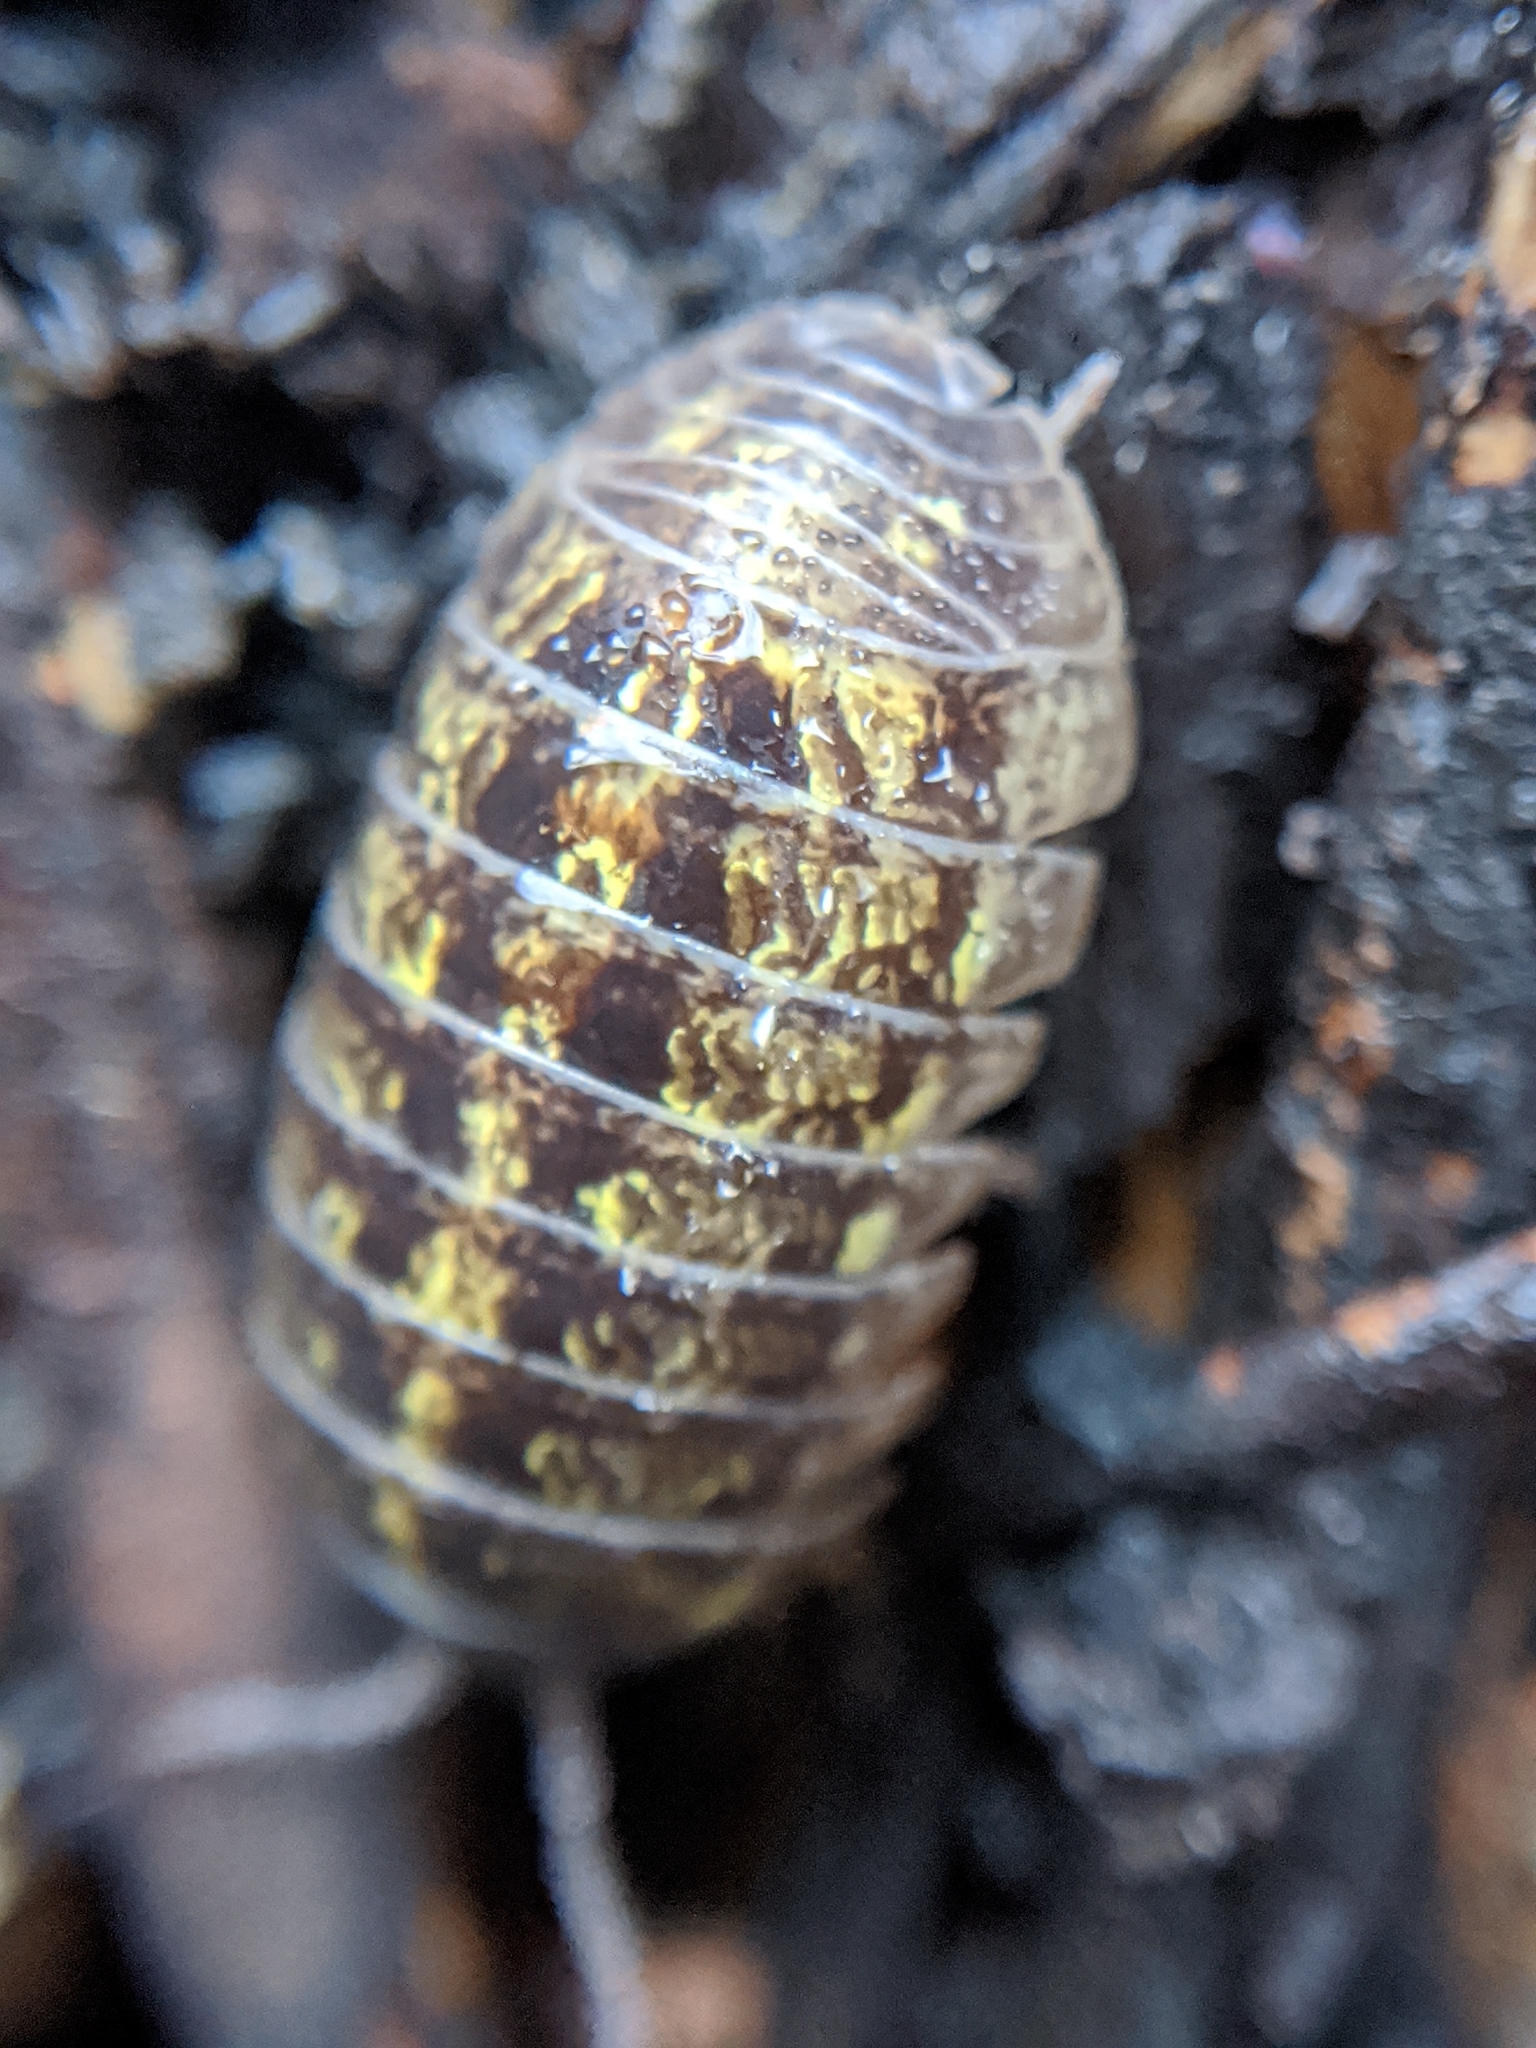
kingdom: Animalia
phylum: Arthropoda
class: Malacostraca
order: Isopoda
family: Armadillidiidae
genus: Armadillidium
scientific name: Armadillidium vulgare
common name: Common pill woodlouse
